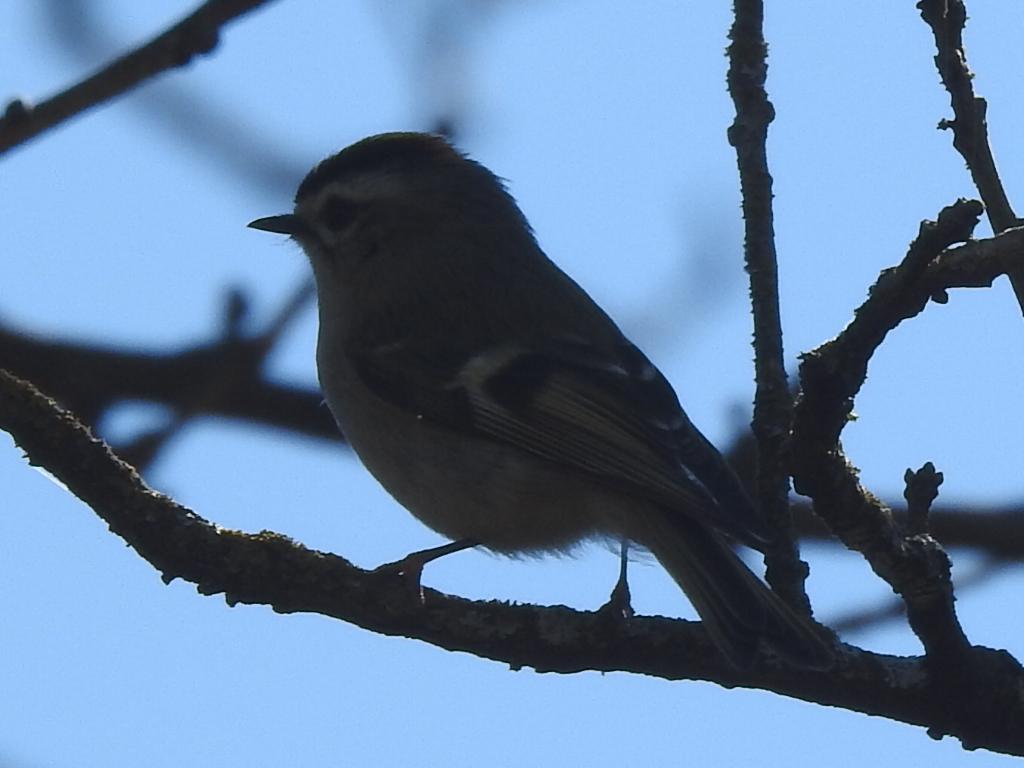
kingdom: Animalia
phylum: Chordata
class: Aves
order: Passeriformes
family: Regulidae
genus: Regulus
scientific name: Regulus satrapa
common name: Golden-crowned kinglet
